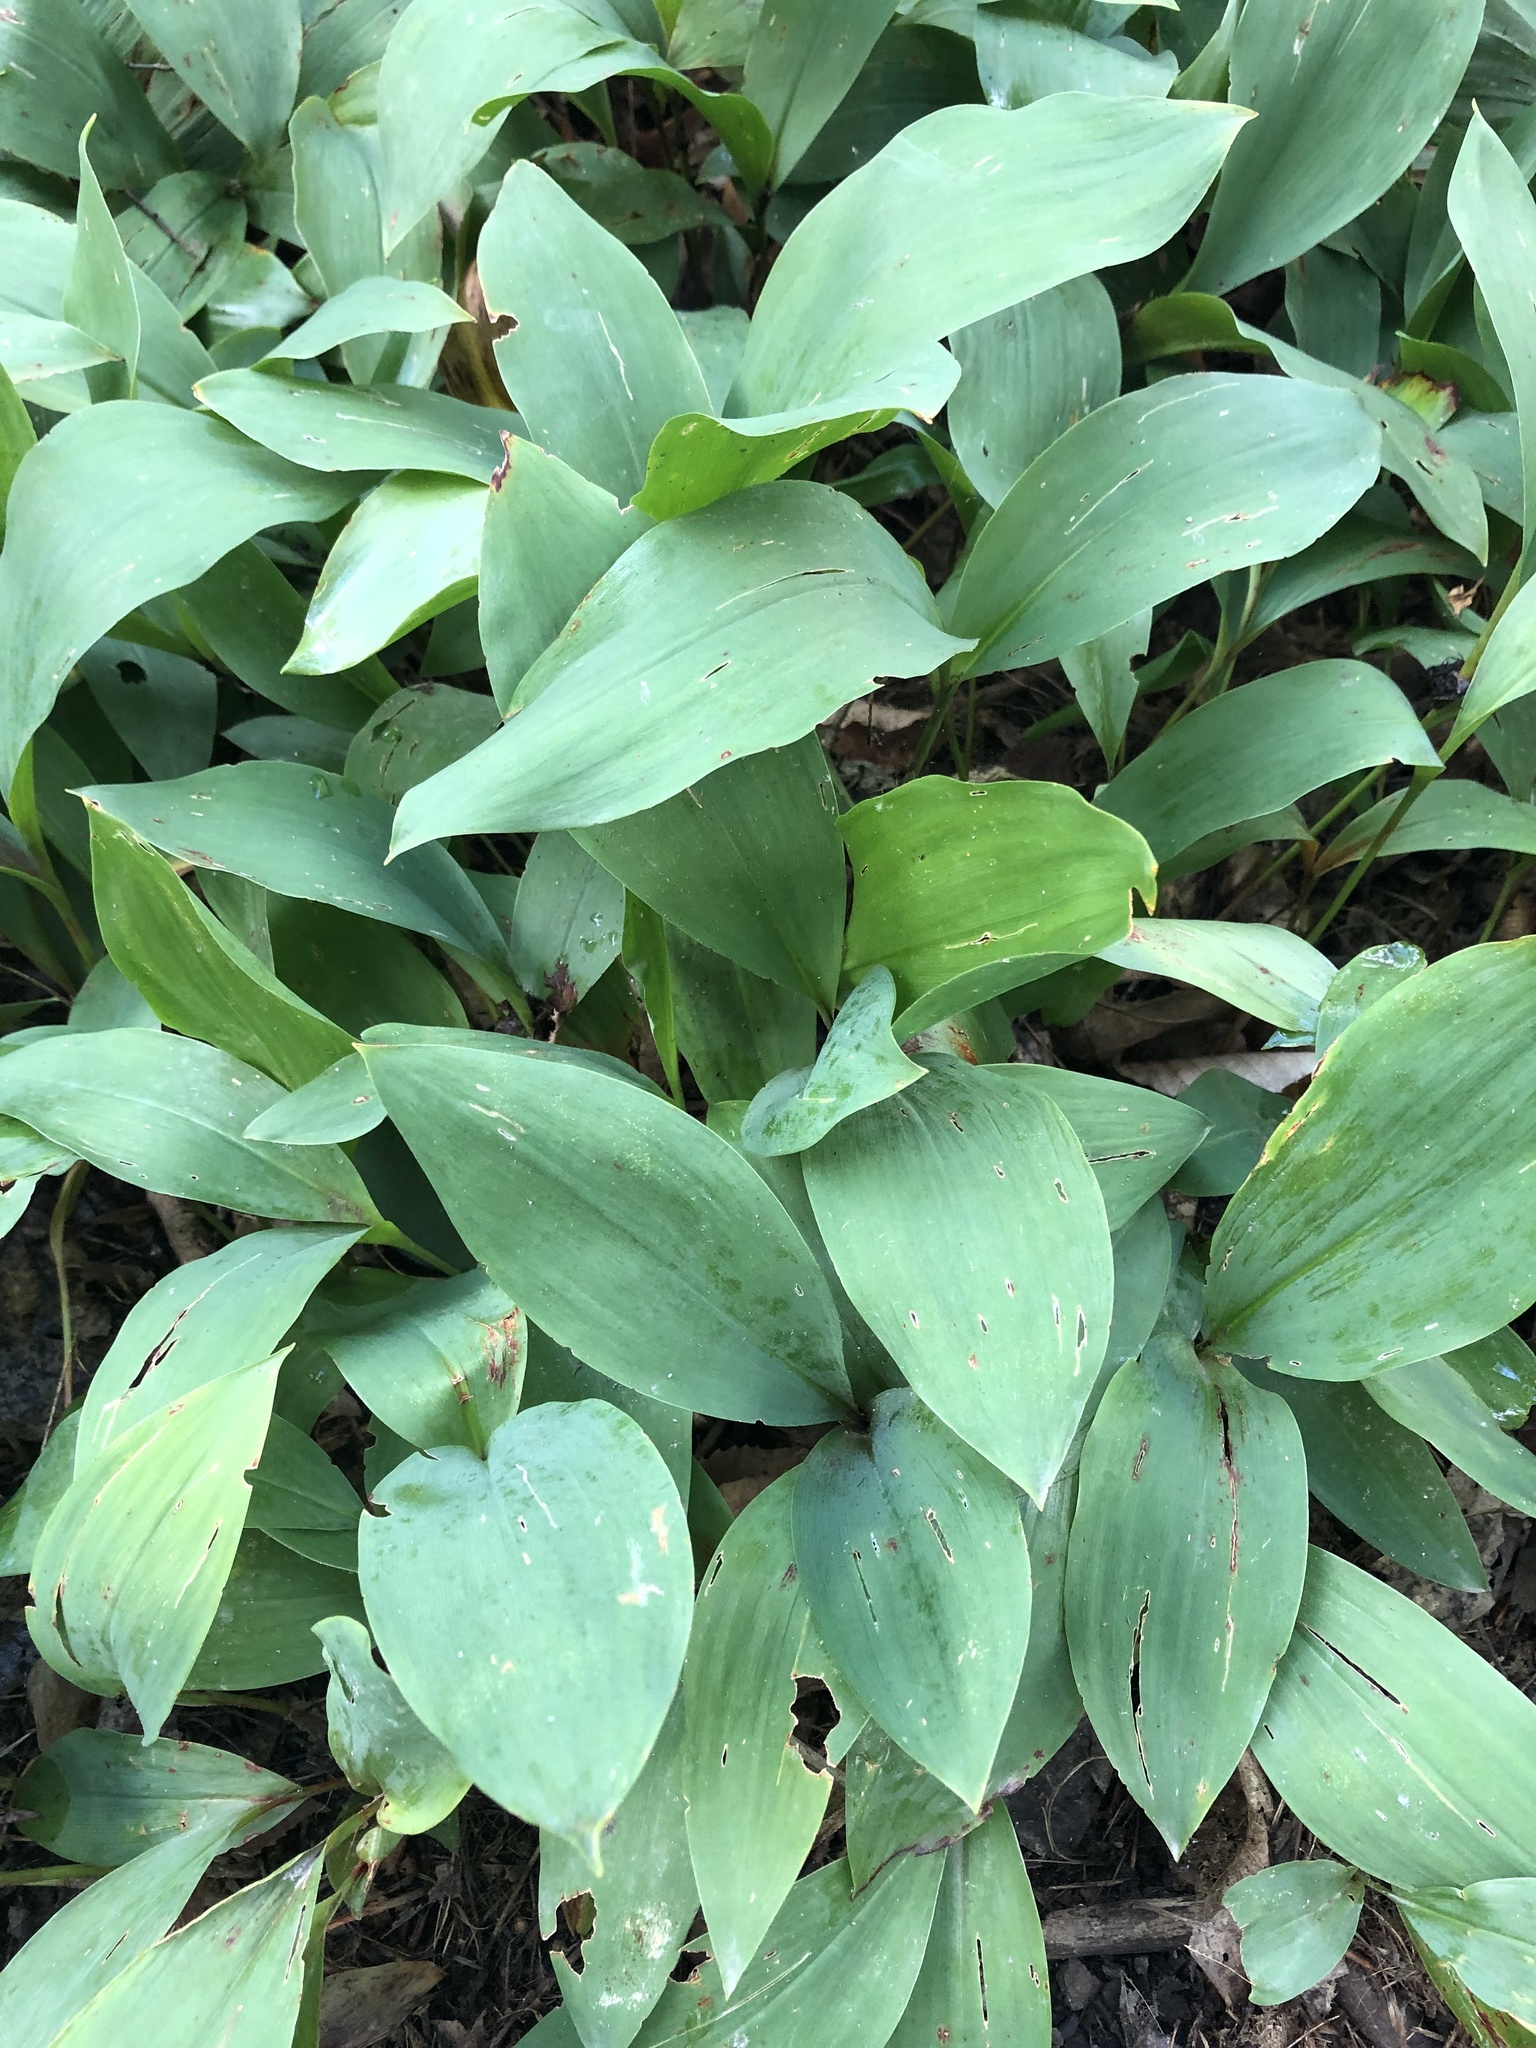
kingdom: Plantae
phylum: Tracheophyta
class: Liliopsida
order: Asparagales
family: Asparagaceae
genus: Convallaria
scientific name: Convallaria majalis
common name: Lily-of-the-valley
